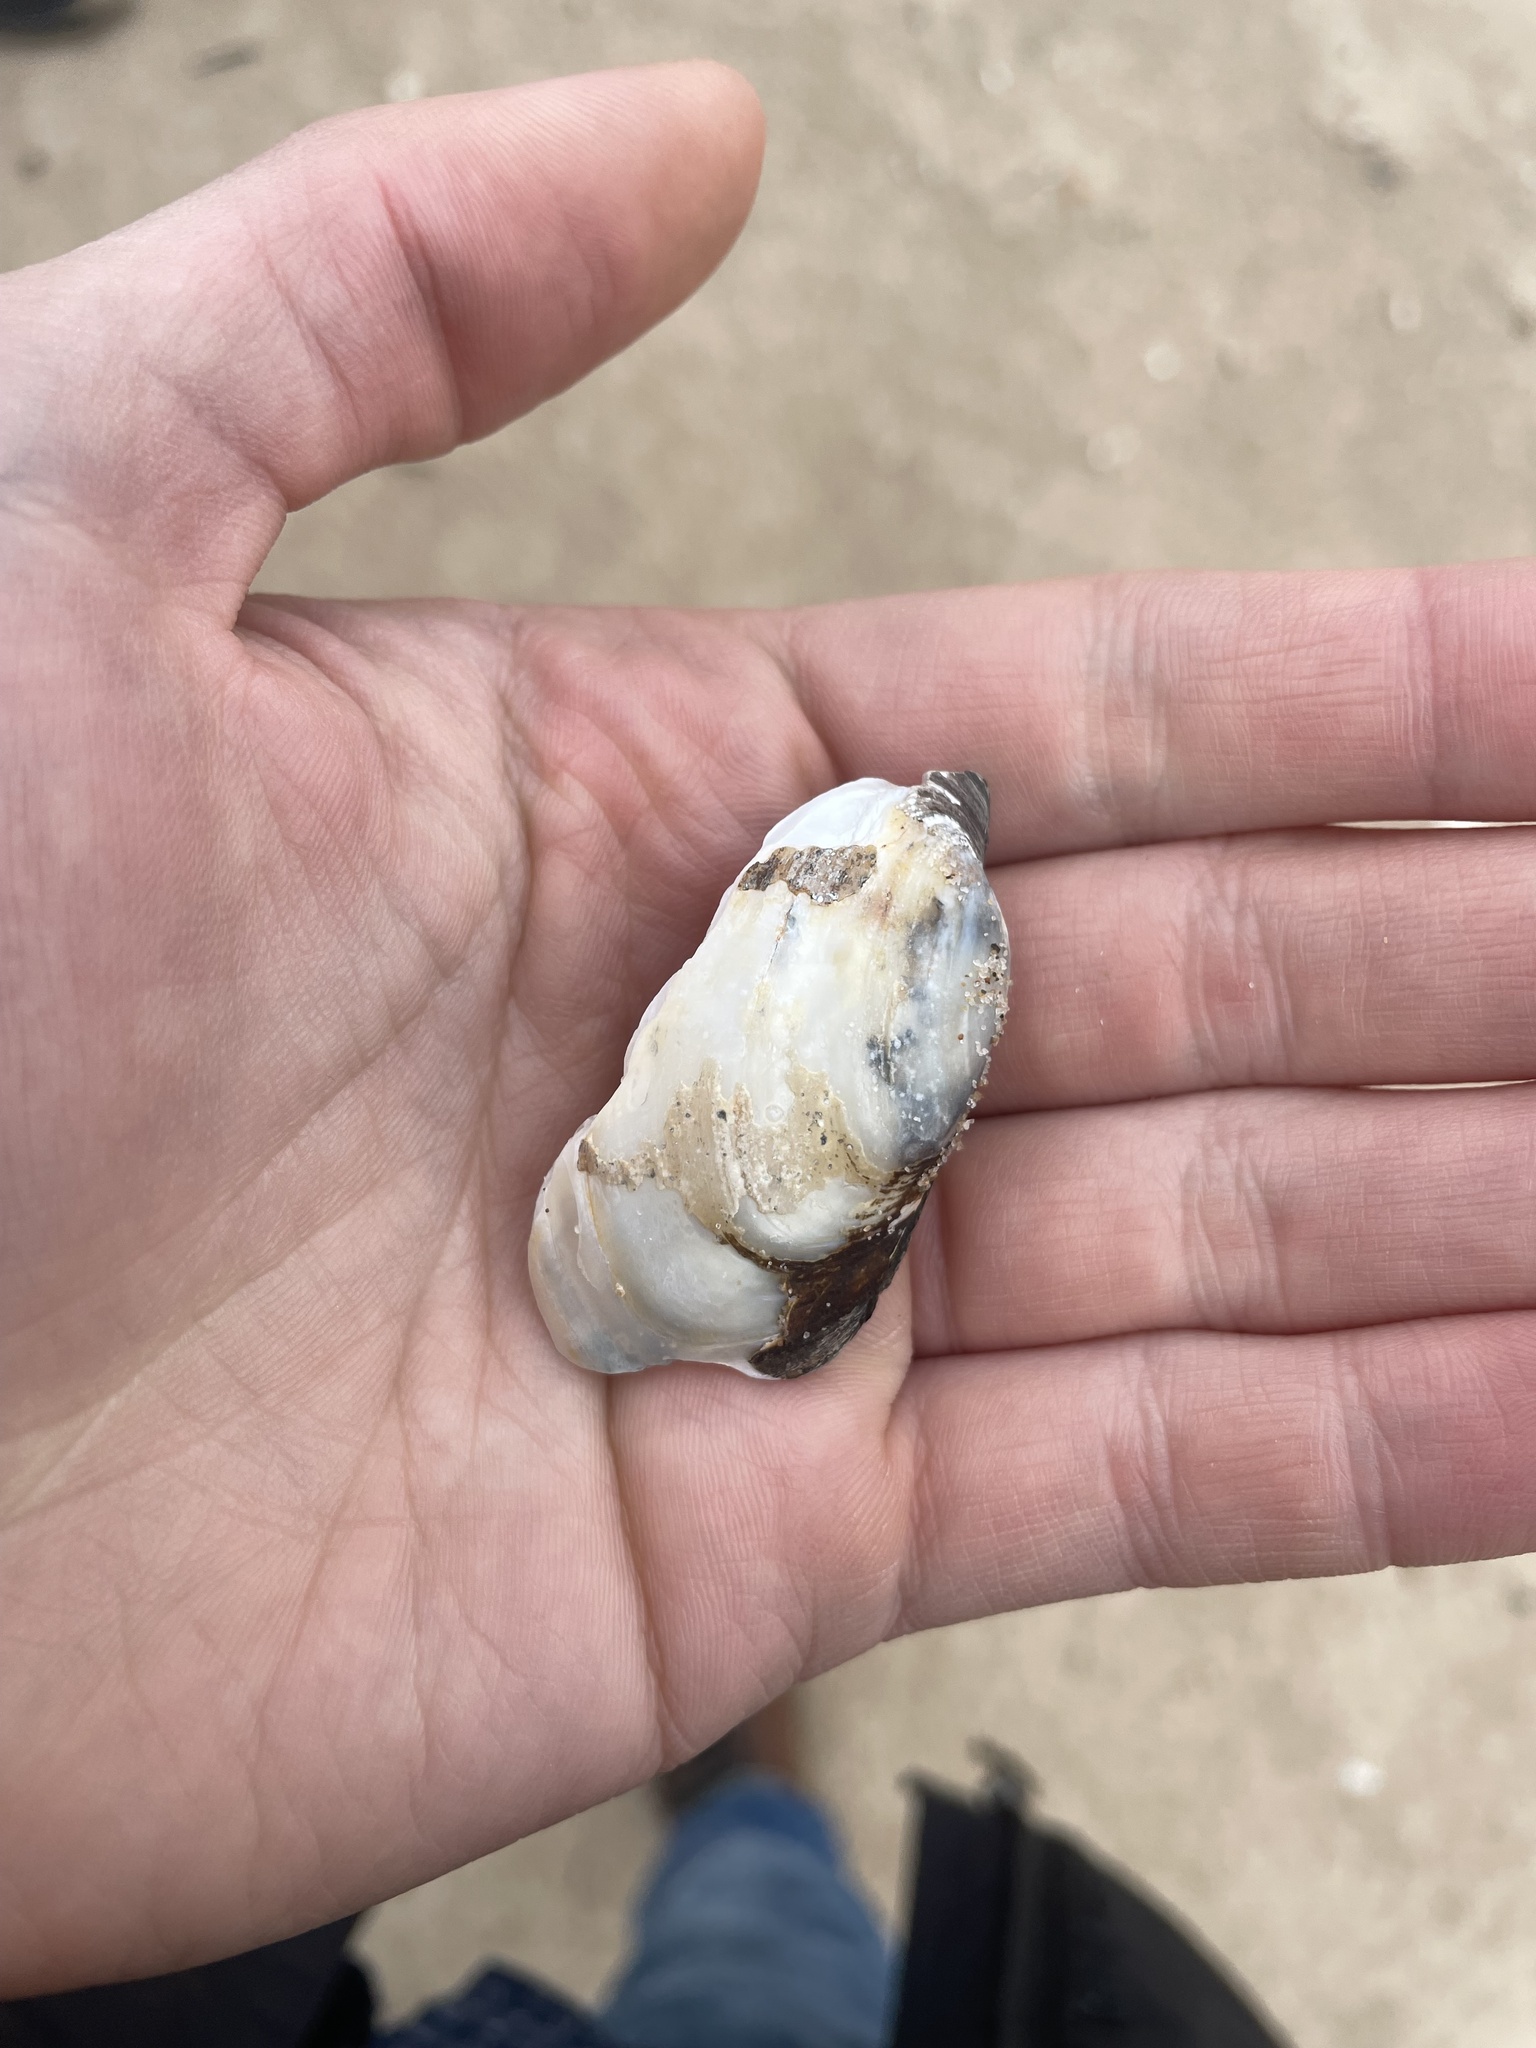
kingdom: Animalia
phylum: Mollusca
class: Bivalvia
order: Unionida
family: Unionidae
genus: Lampsilis
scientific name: Lampsilis siliquoidea
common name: Fatmucket
